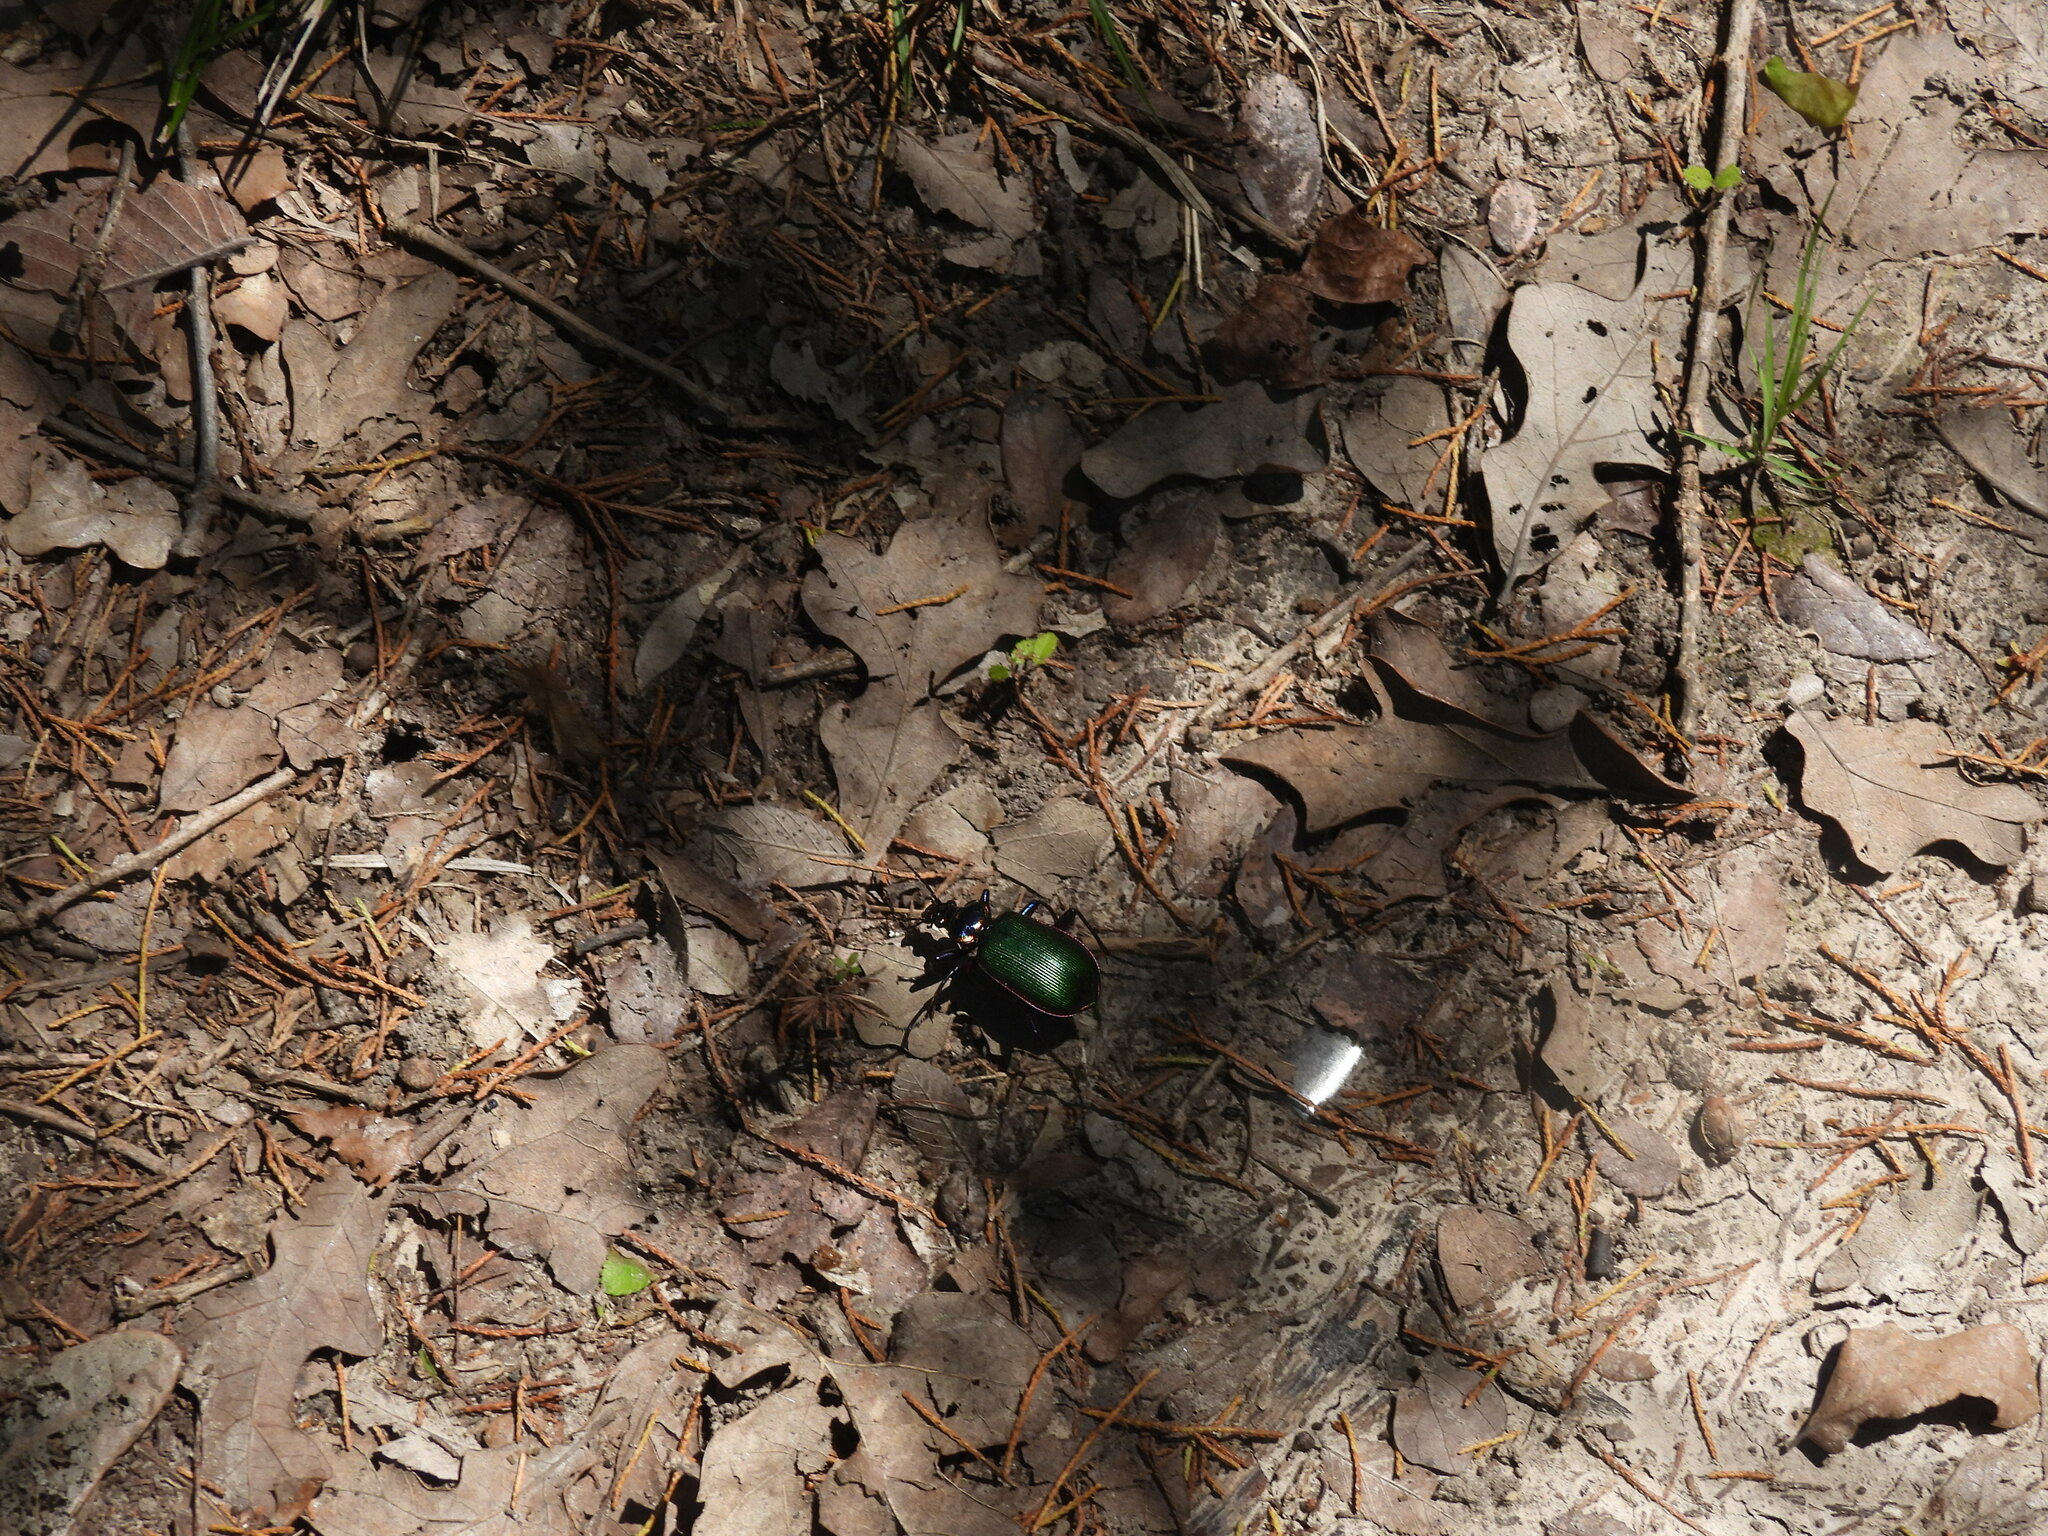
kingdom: Animalia
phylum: Arthropoda
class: Insecta
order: Coleoptera
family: Carabidae
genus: Calosoma
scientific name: Calosoma scrutator
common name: Fiery searcher beetle
